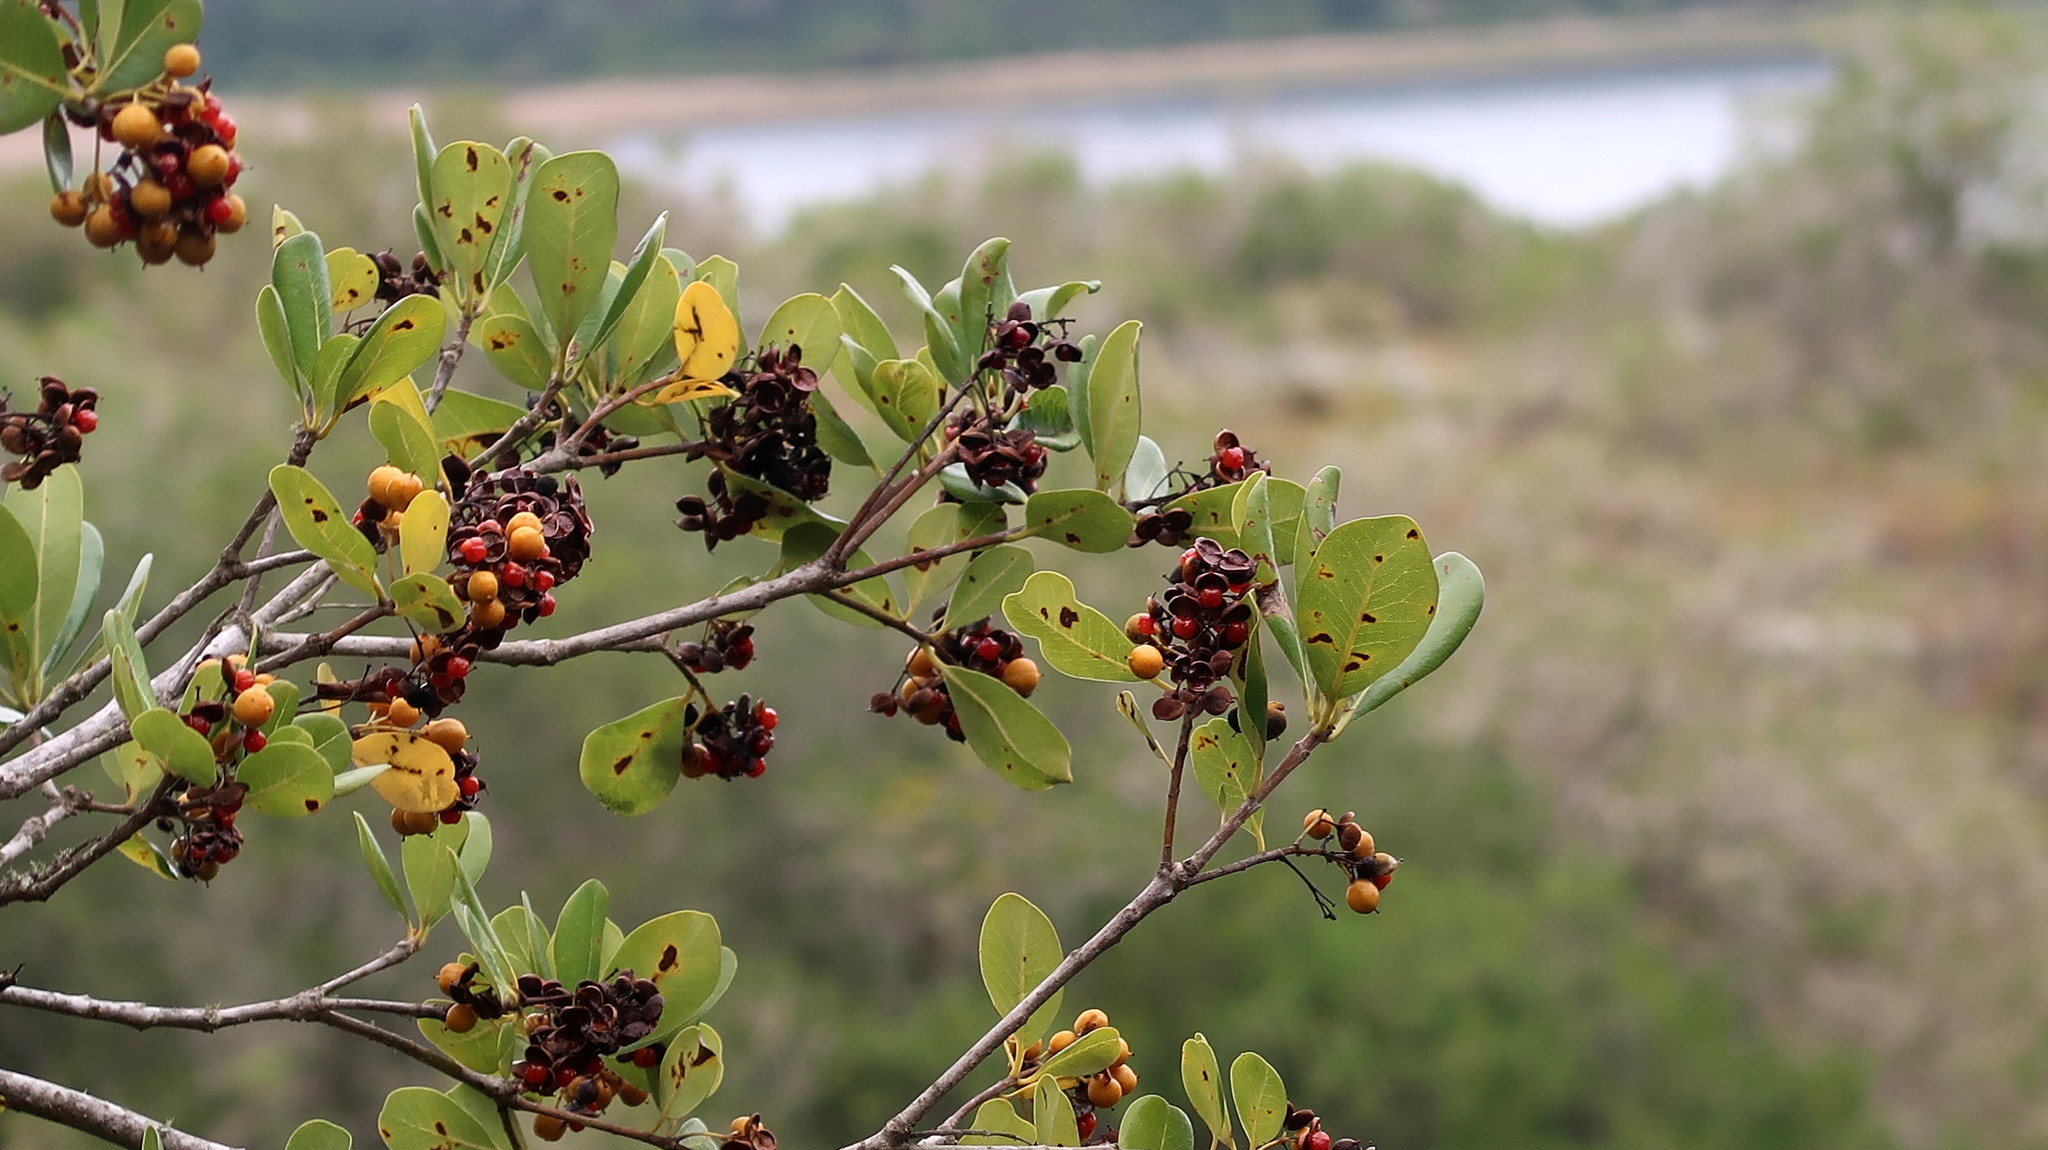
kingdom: Plantae
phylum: Tracheophyta
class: Magnoliopsida
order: Apiales
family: Pittosporaceae
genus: Pittosporum
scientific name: Pittosporum viridiflorum
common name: Cape cheesewood
